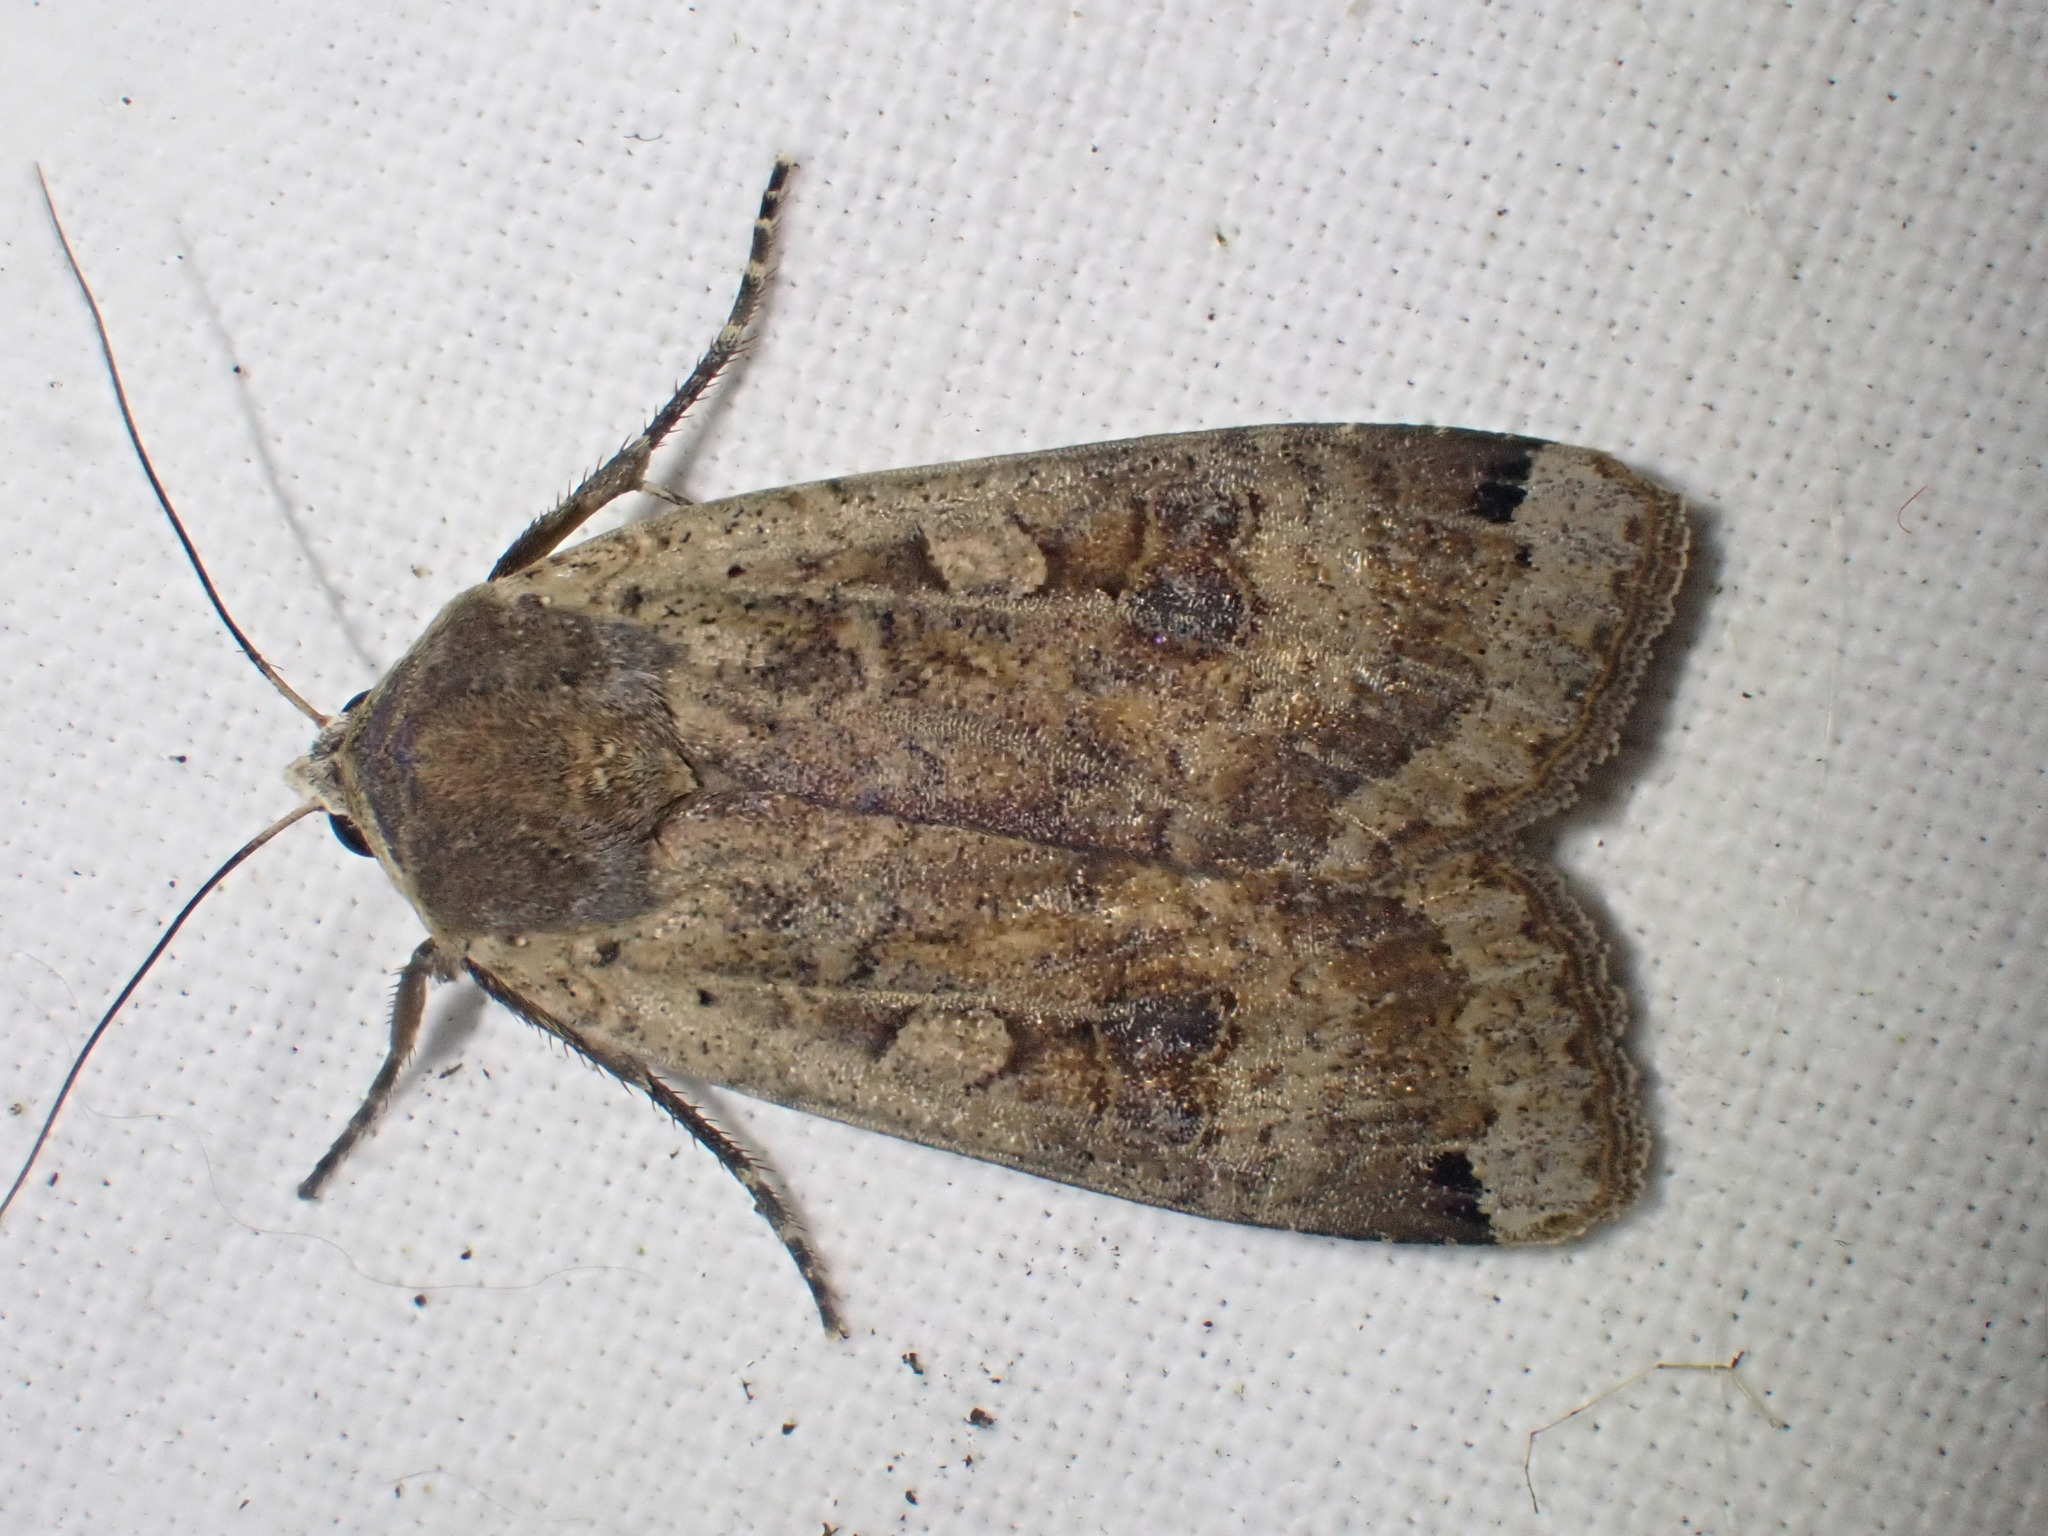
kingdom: Animalia
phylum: Arthropoda
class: Insecta
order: Lepidoptera
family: Noctuidae
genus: Noctua
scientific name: Noctua pronuba
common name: Large yellow underwing
